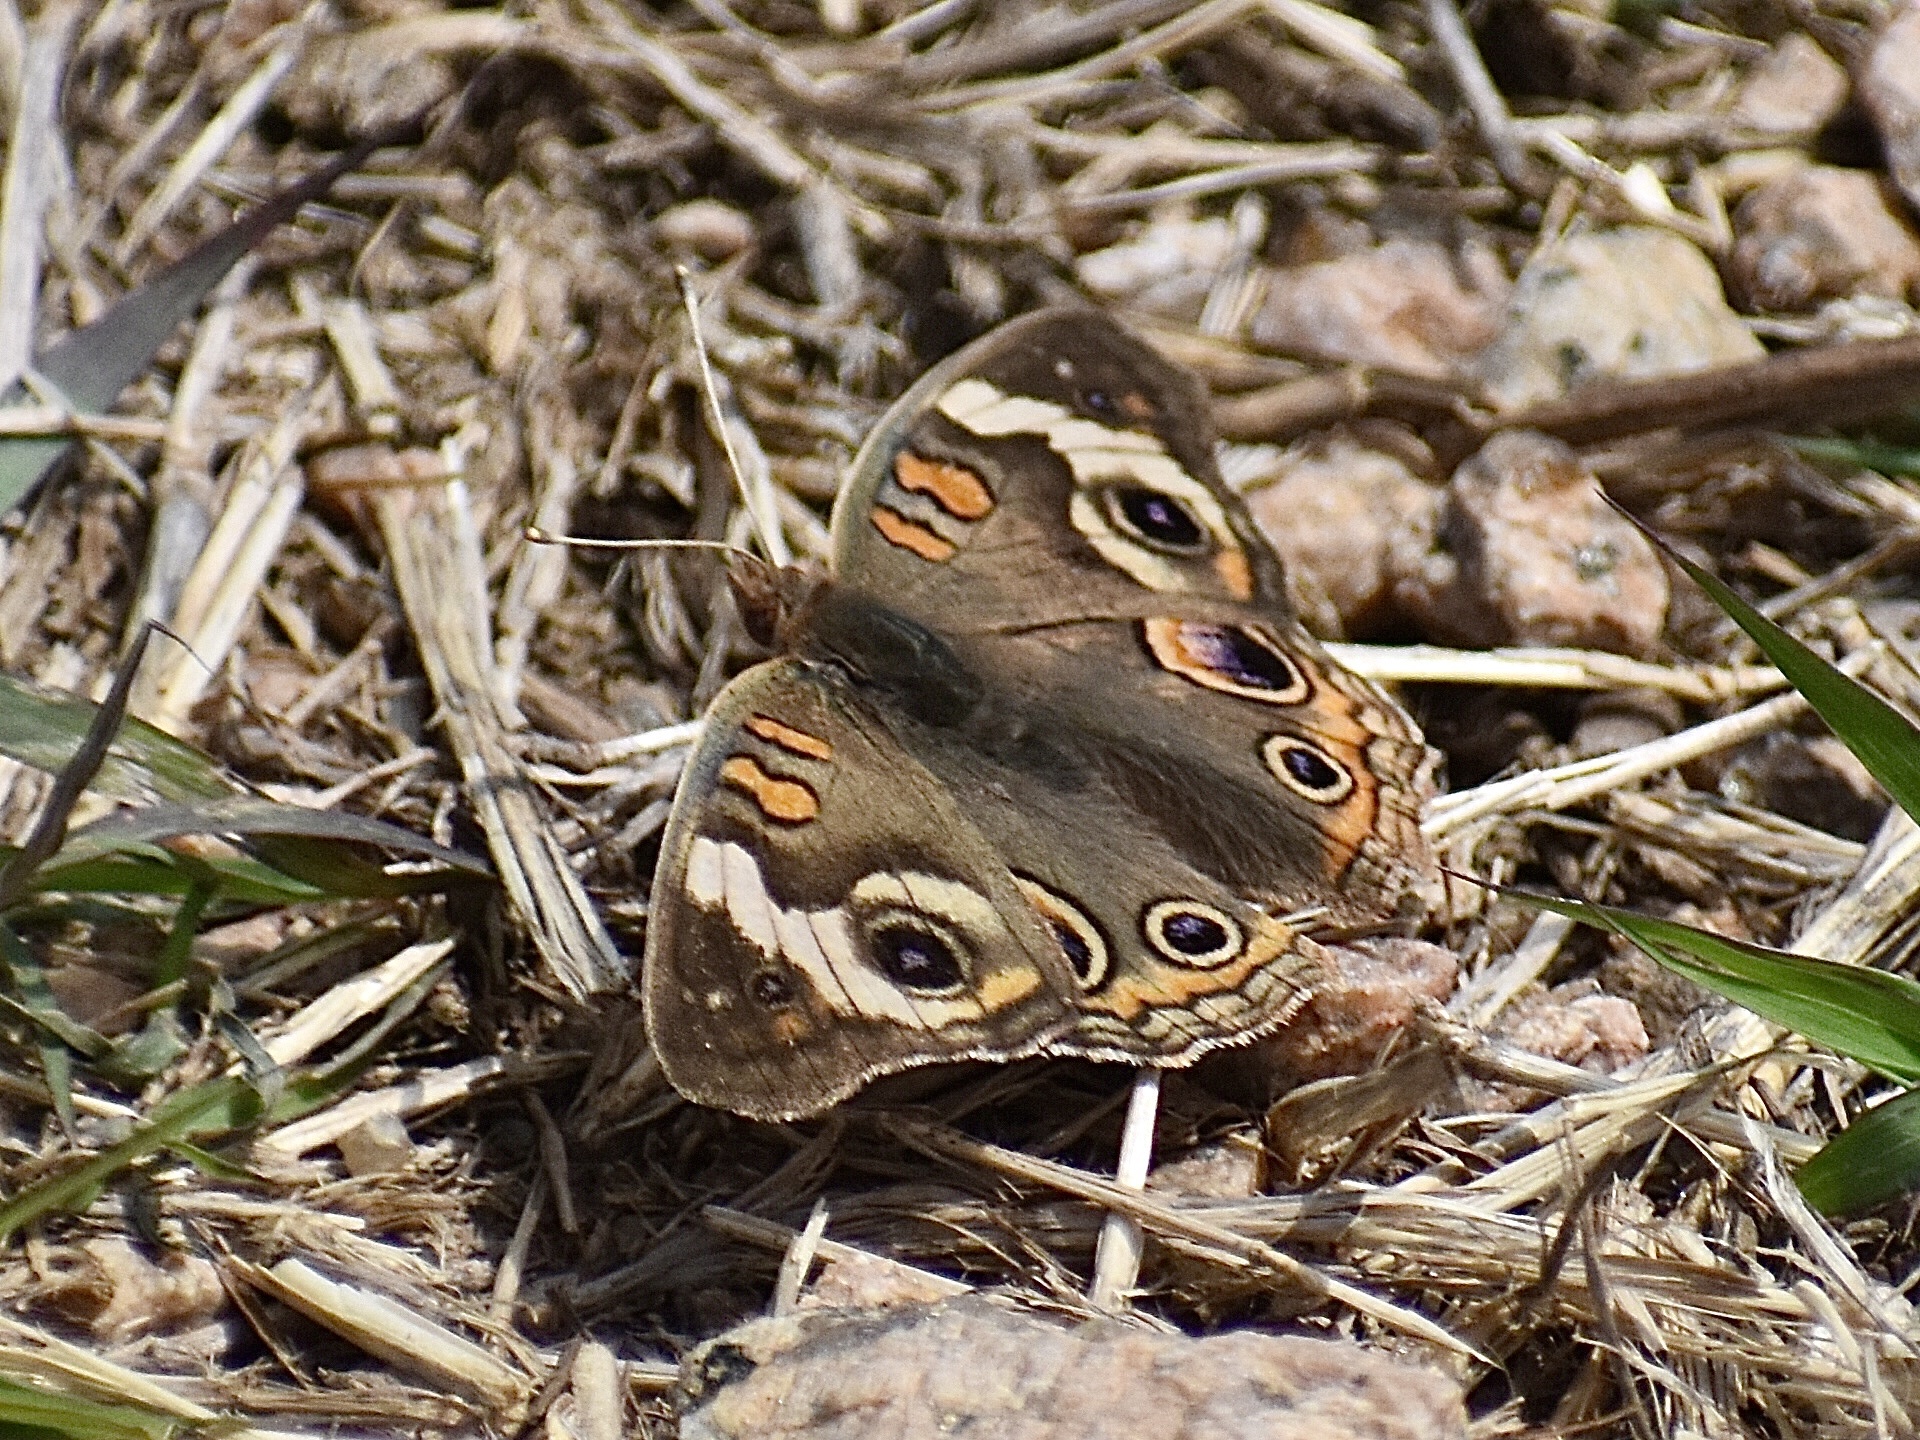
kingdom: Animalia
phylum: Arthropoda
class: Insecta
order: Lepidoptera
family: Nymphalidae
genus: Junonia
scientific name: Junonia coenia
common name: Common buckeye
